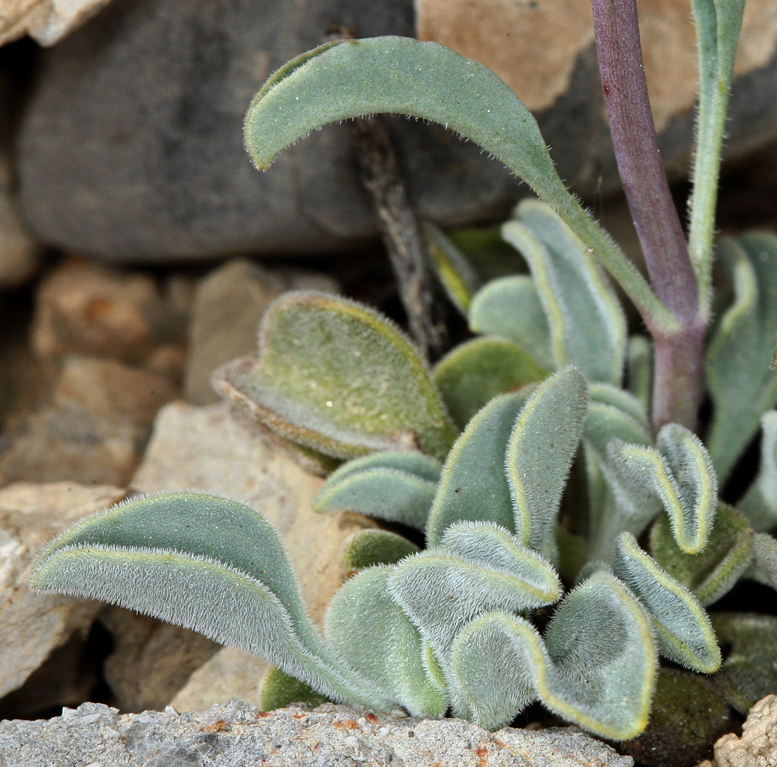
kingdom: Plantae
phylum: Tracheophyta
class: Magnoliopsida
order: Lamiales
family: Plantaginaceae
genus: Penstemon
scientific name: Penstemon scapoides
